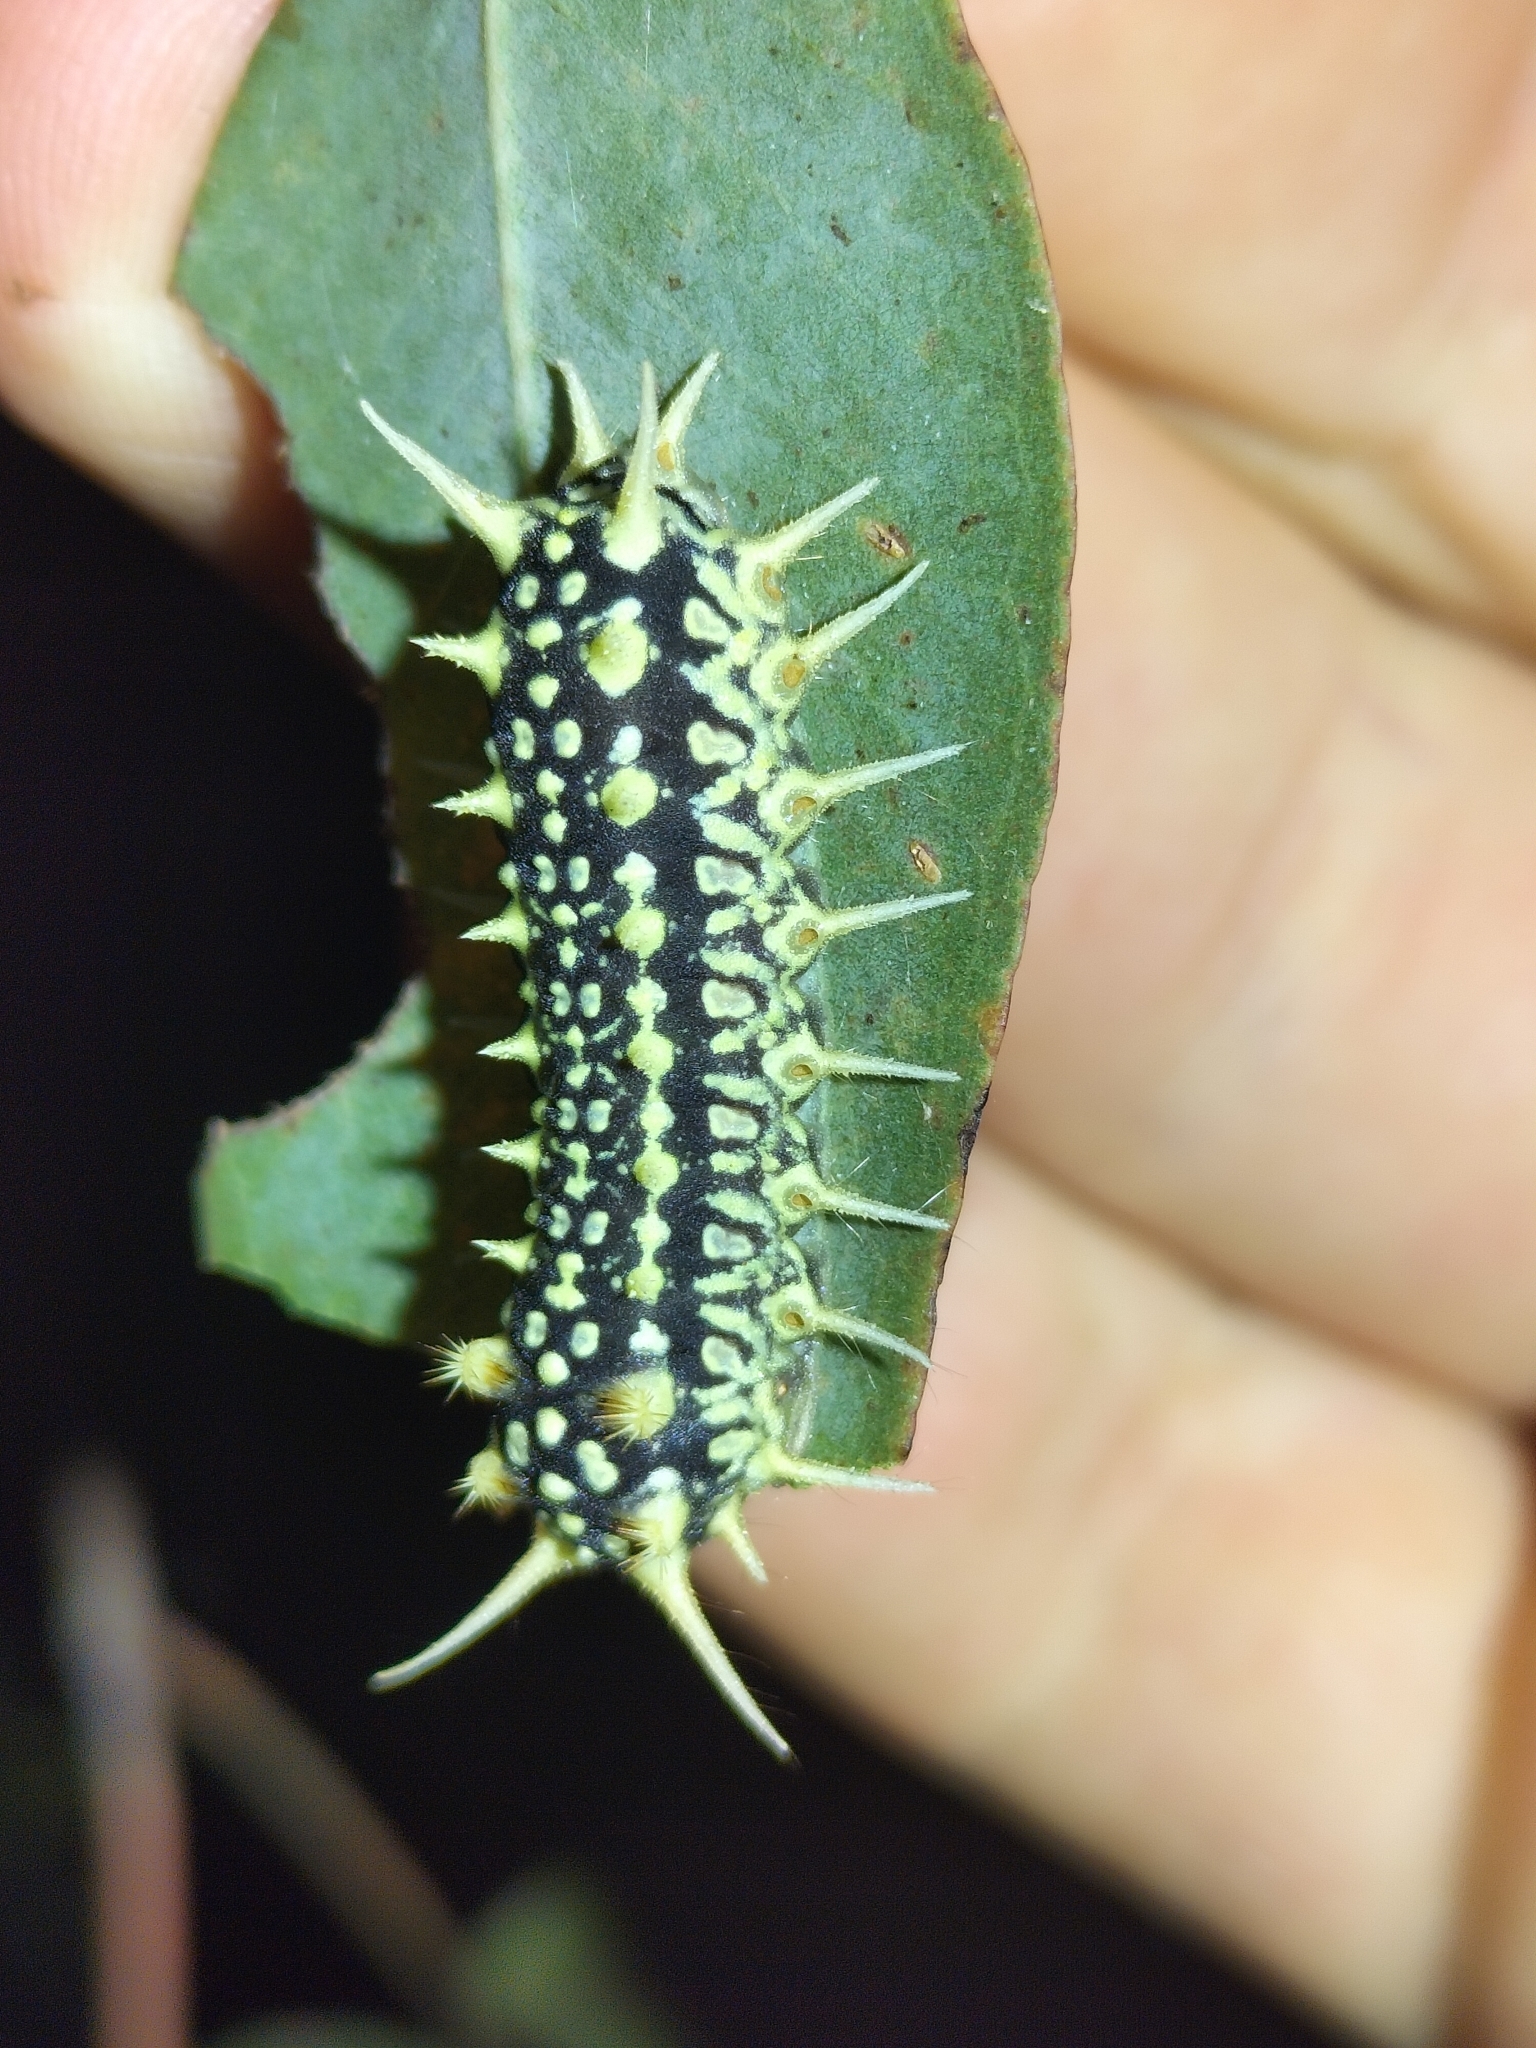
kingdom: Animalia
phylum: Arthropoda
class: Insecta
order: Lepidoptera
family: Limacodidae
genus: Doratifera
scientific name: Doratifera casta
